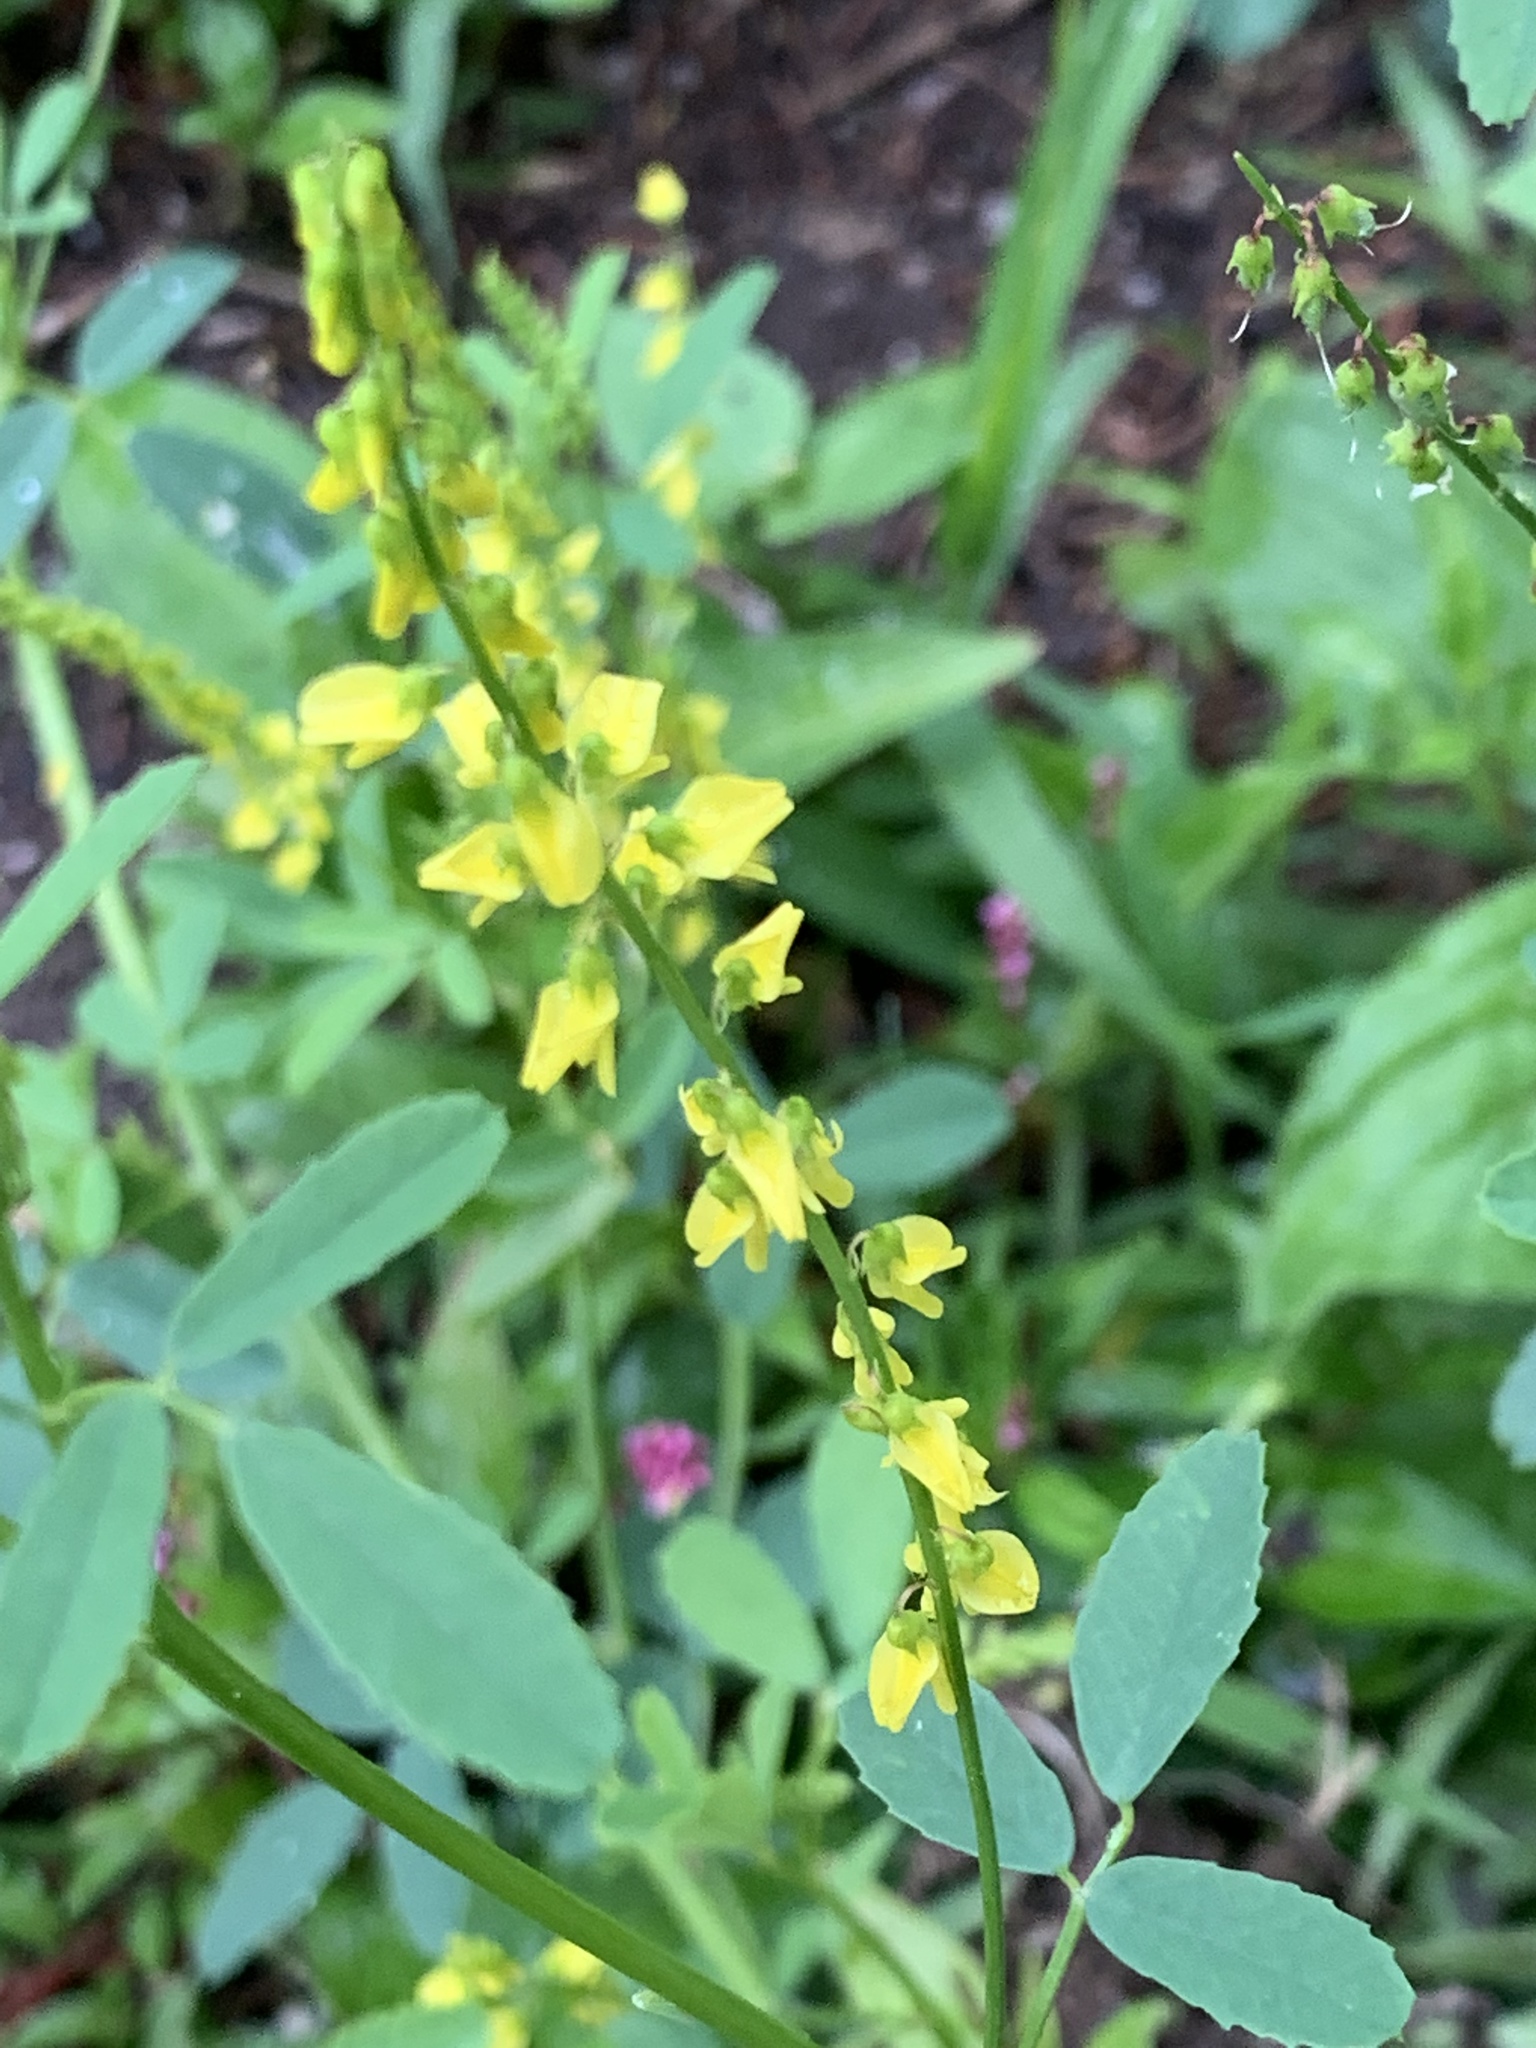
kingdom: Plantae
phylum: Tracheophyta
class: Magnoliopsida
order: Fabales
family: Fabaceae
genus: Melilotus
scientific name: Melilotus officinalis
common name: Sweetclover
